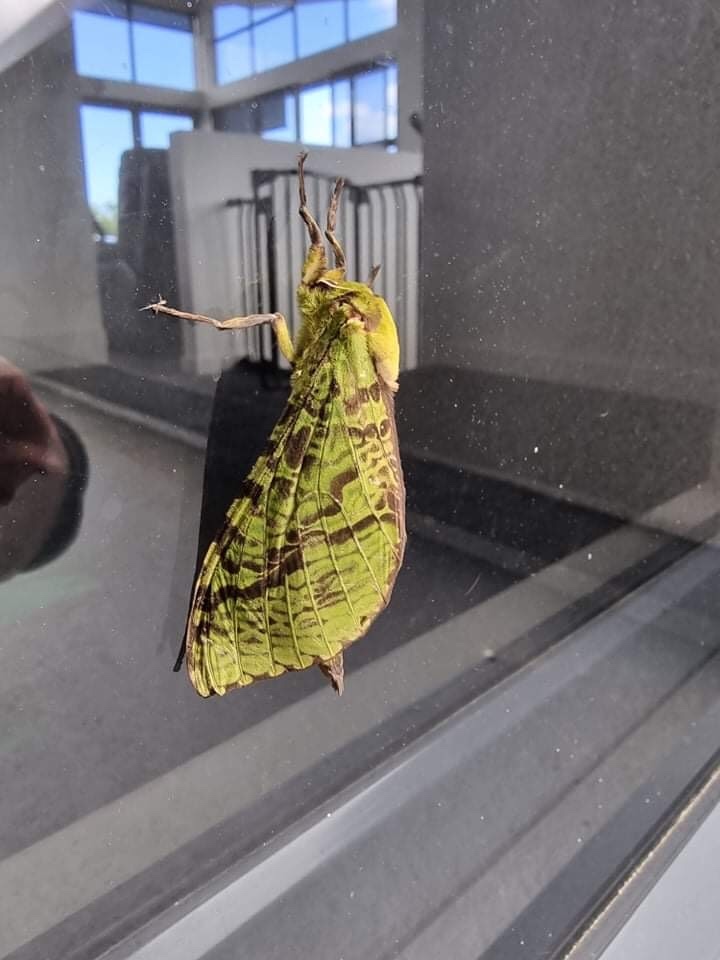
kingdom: Animalia
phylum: Arthropoda
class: Insecta
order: Lepidoptera
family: Hepialidae
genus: Aenetus
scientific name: Aenetus virescens
